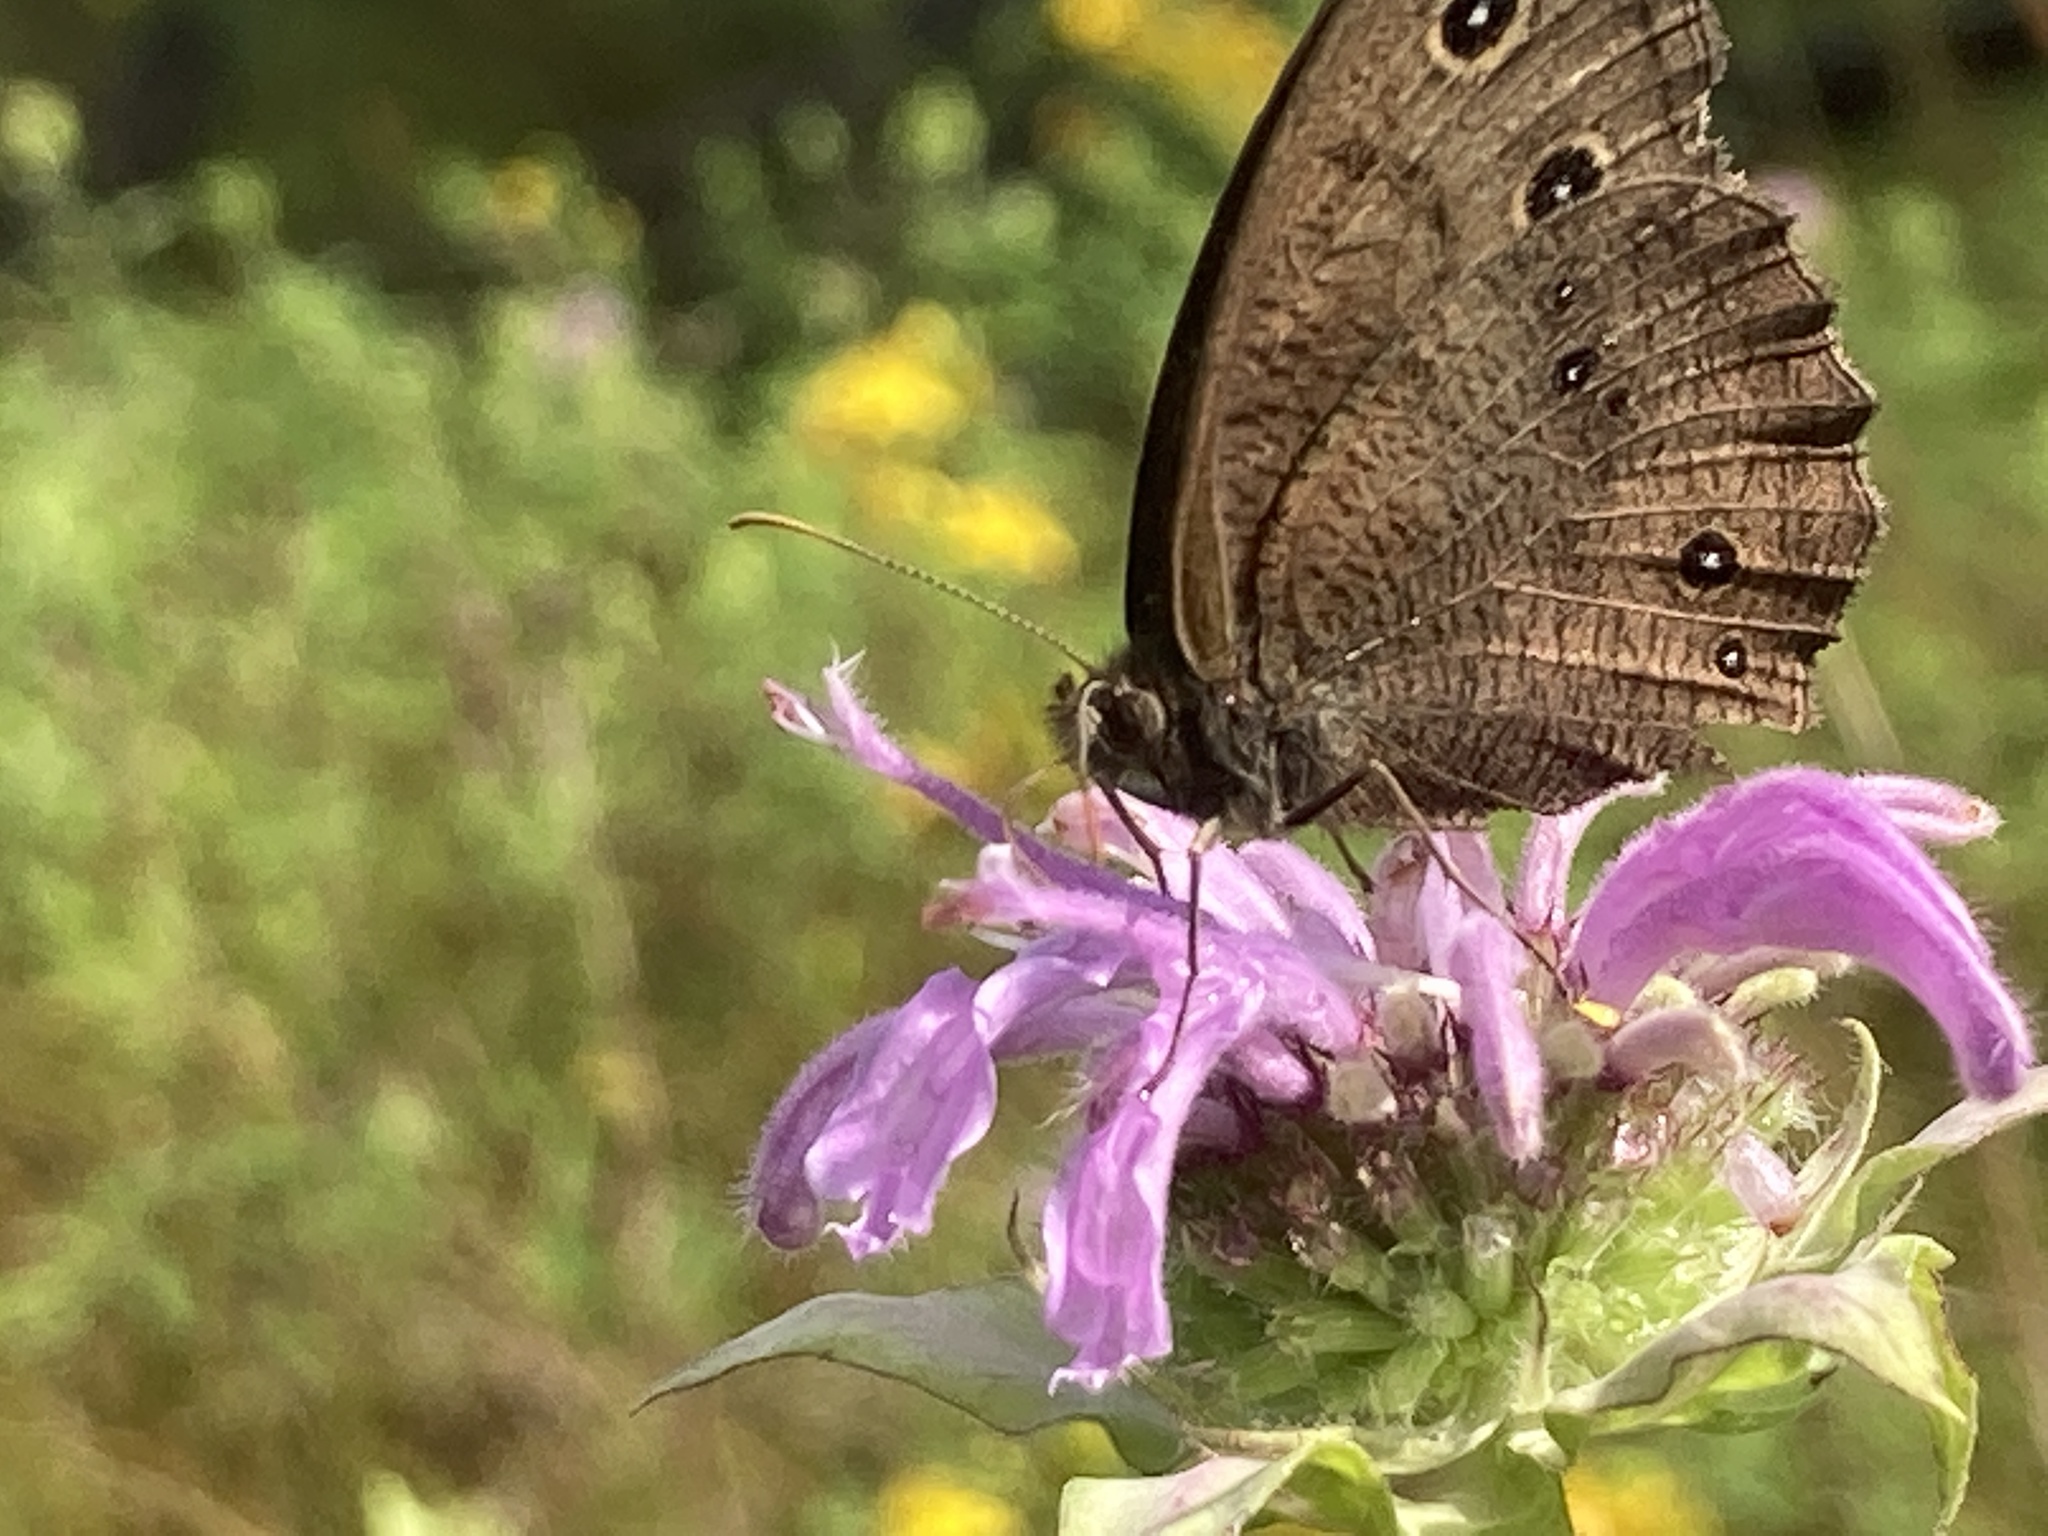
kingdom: Animalia
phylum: Arthropoda
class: Insecta
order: Lepidoptera
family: Nymphalidae
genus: Cercyonis
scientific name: Cercyonis pegala
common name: Common wood-nymph
